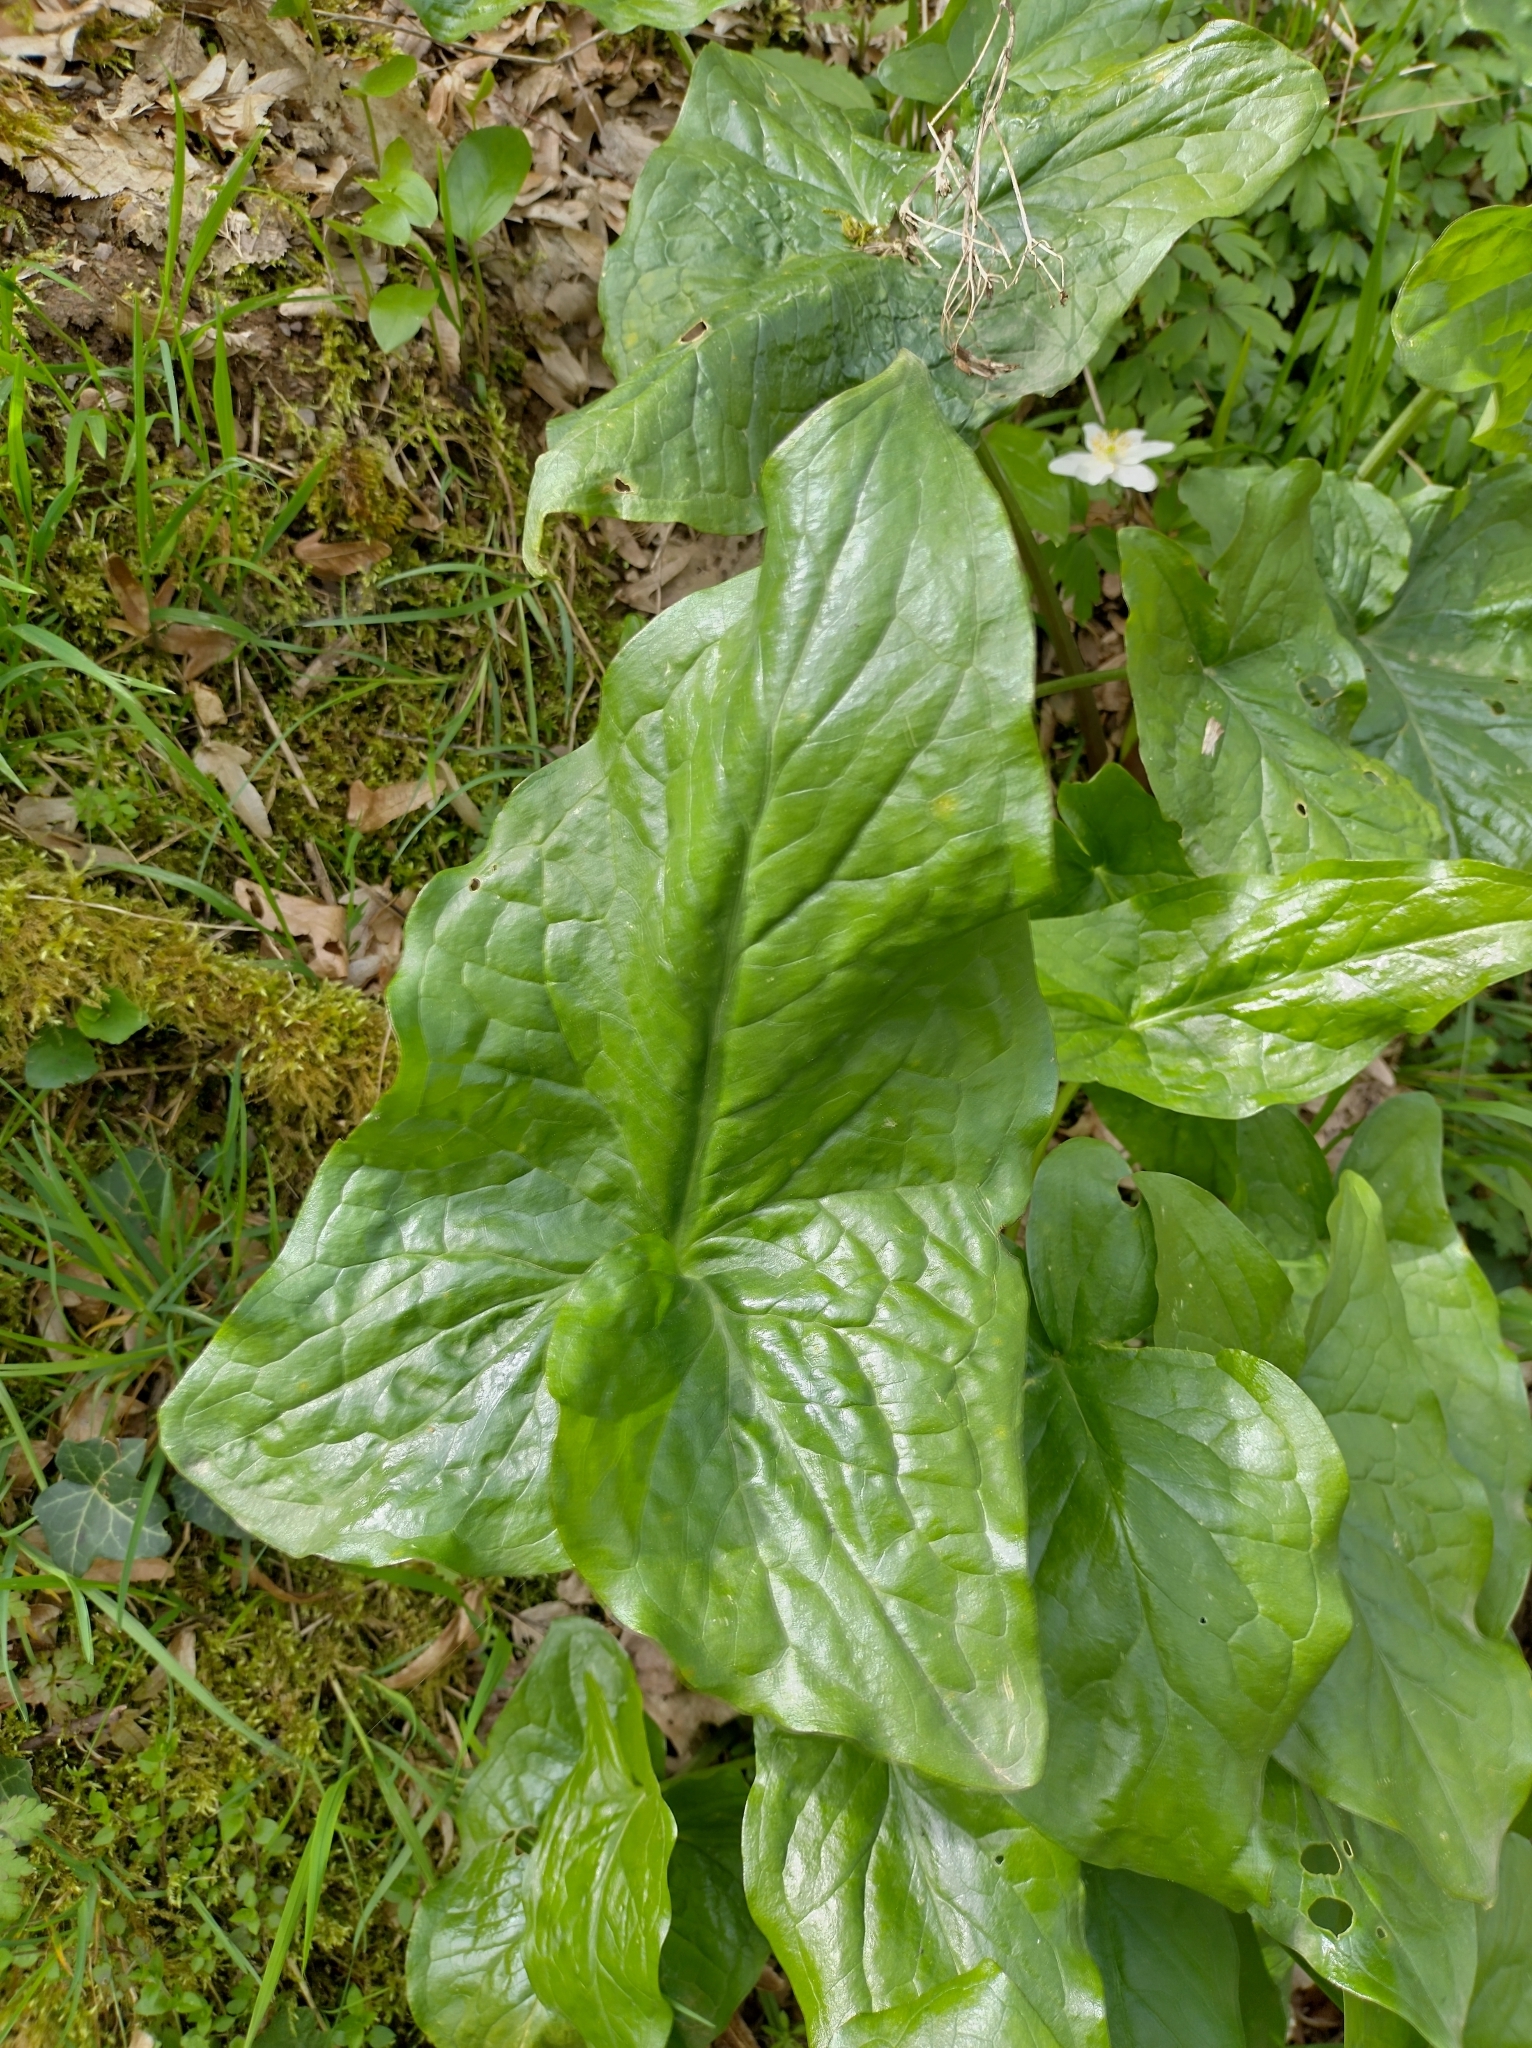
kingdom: Plantae
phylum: Tracheophyta
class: Liliopsida
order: Alismatales
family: Araceae
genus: Arum
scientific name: Arum maculatum
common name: Lords-and-ladies
